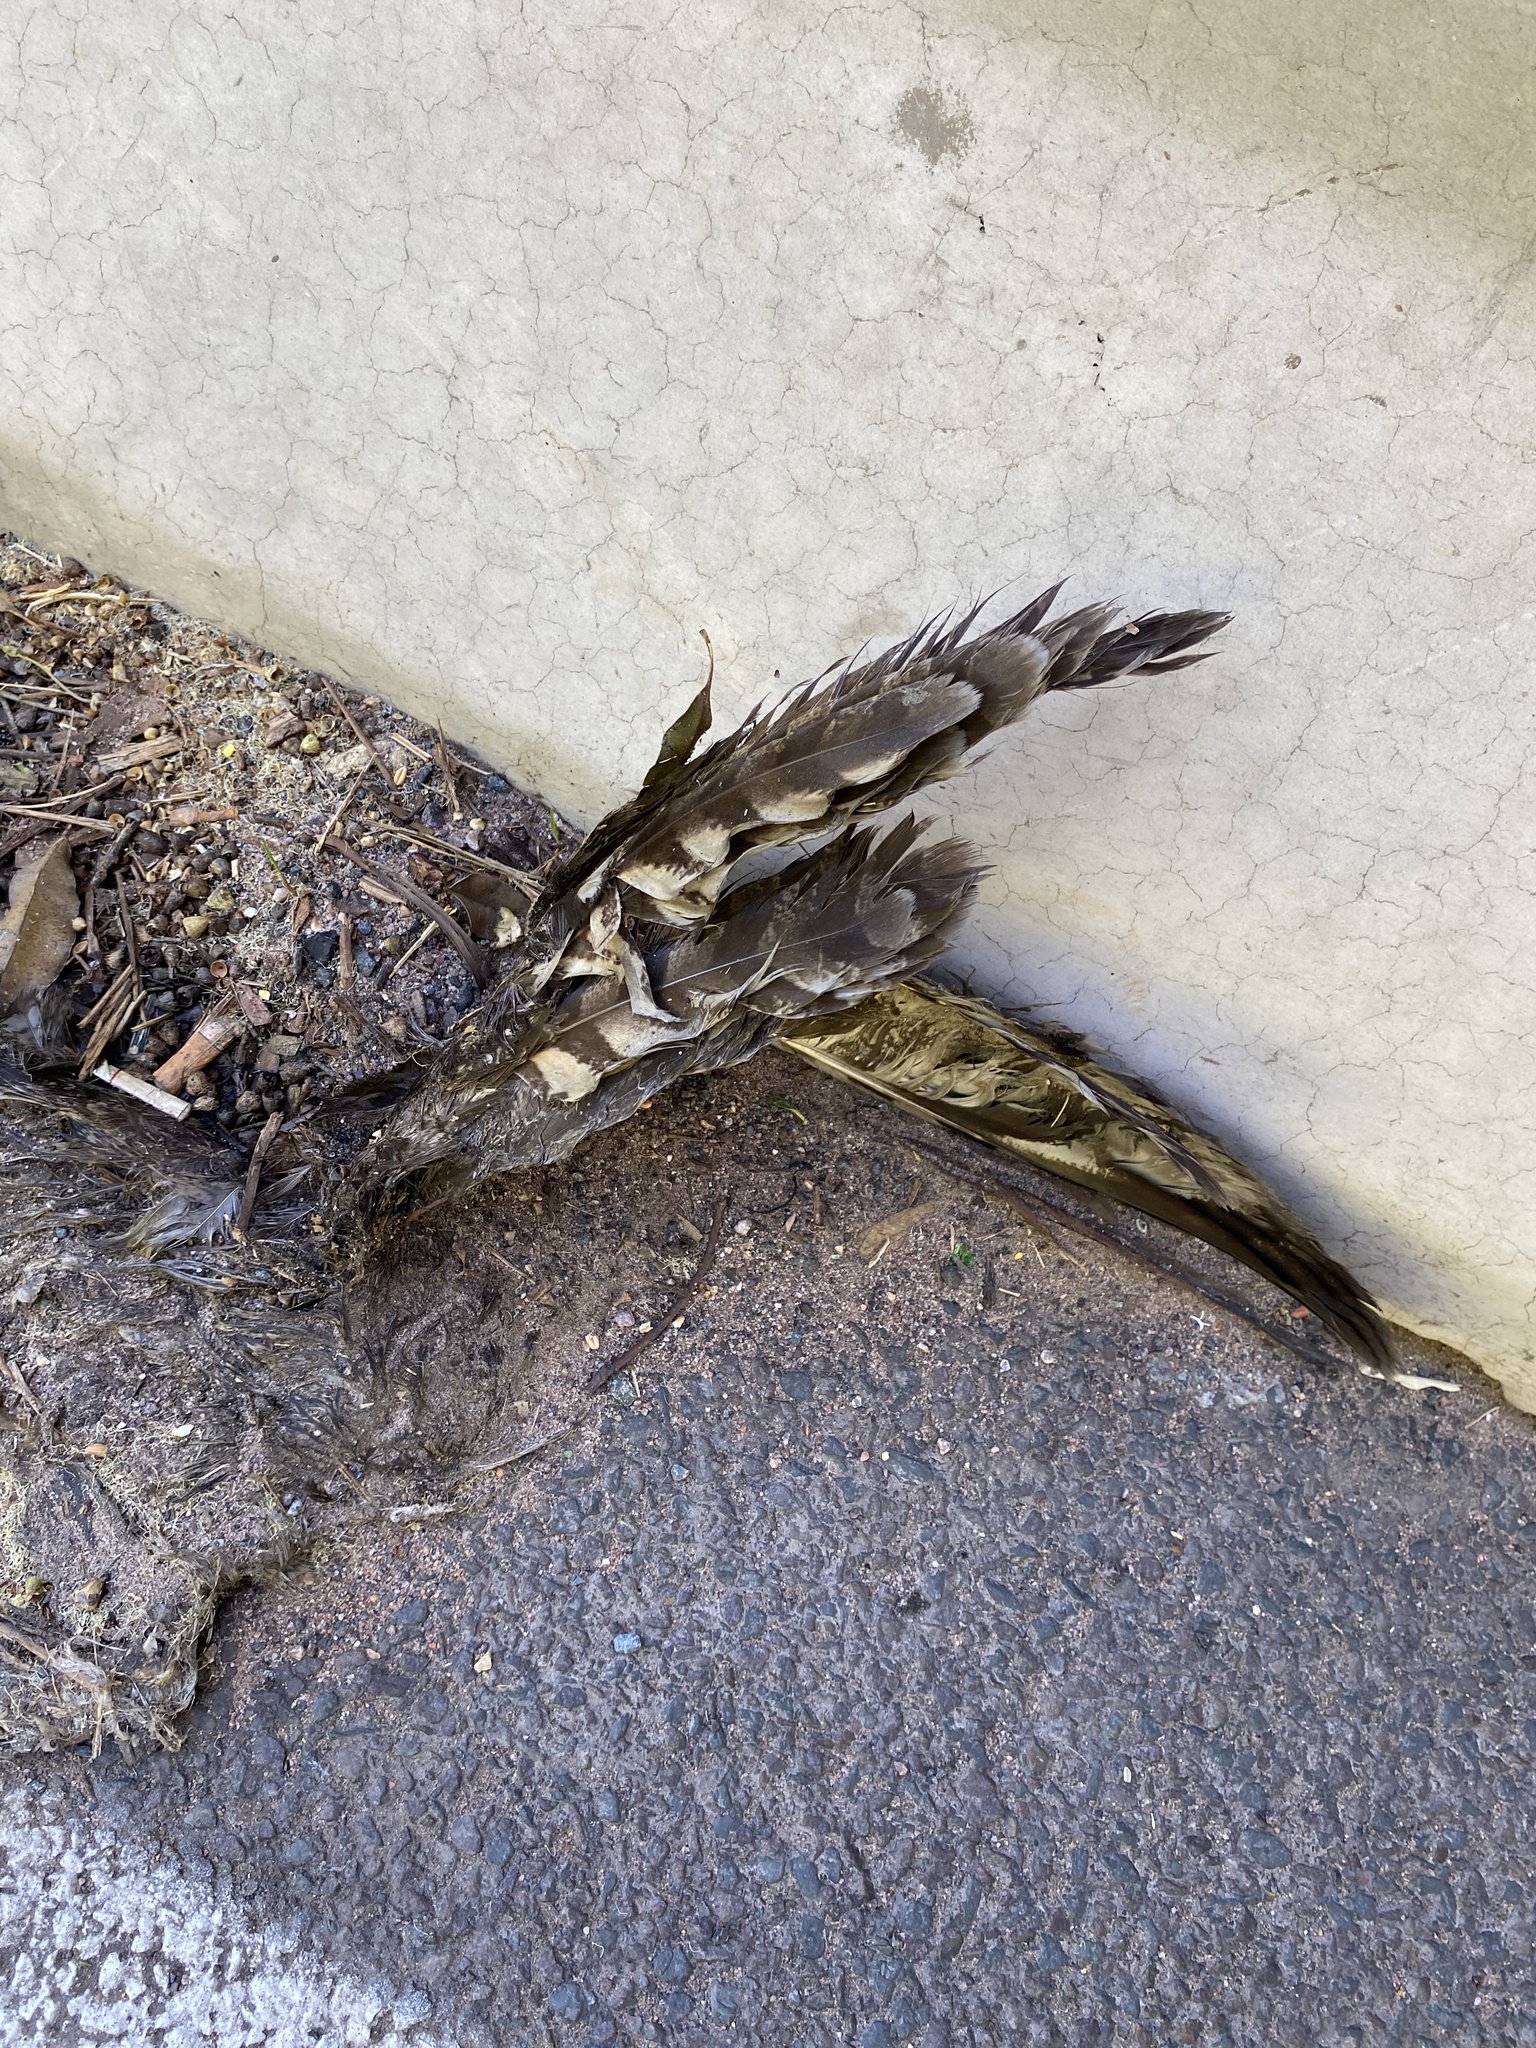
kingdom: Animalia
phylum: Chordata
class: Aves
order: Strigiformes
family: Strigidae
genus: Bubo
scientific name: Bubo africanus
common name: Spotted eagle-owl
